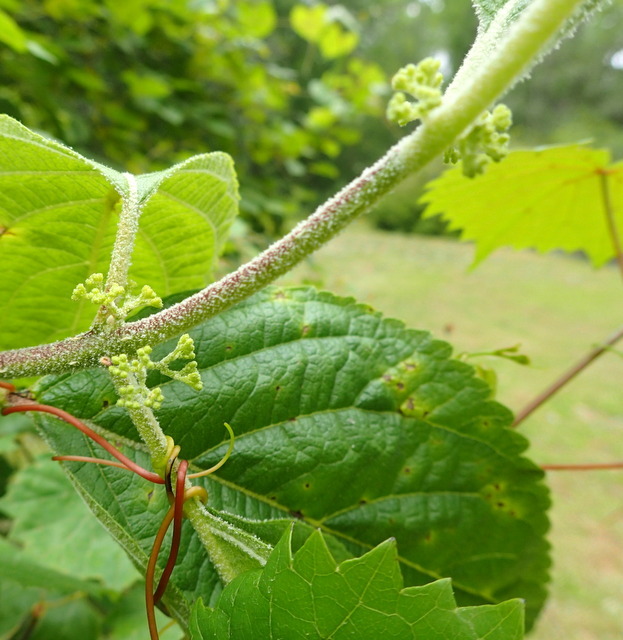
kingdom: Plantae
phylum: Tracheophyta
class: Magnoliopsida
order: Lamiales
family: Lamiaceae
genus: Callicarpa
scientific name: Callicarpa americana
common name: American beautyberry
